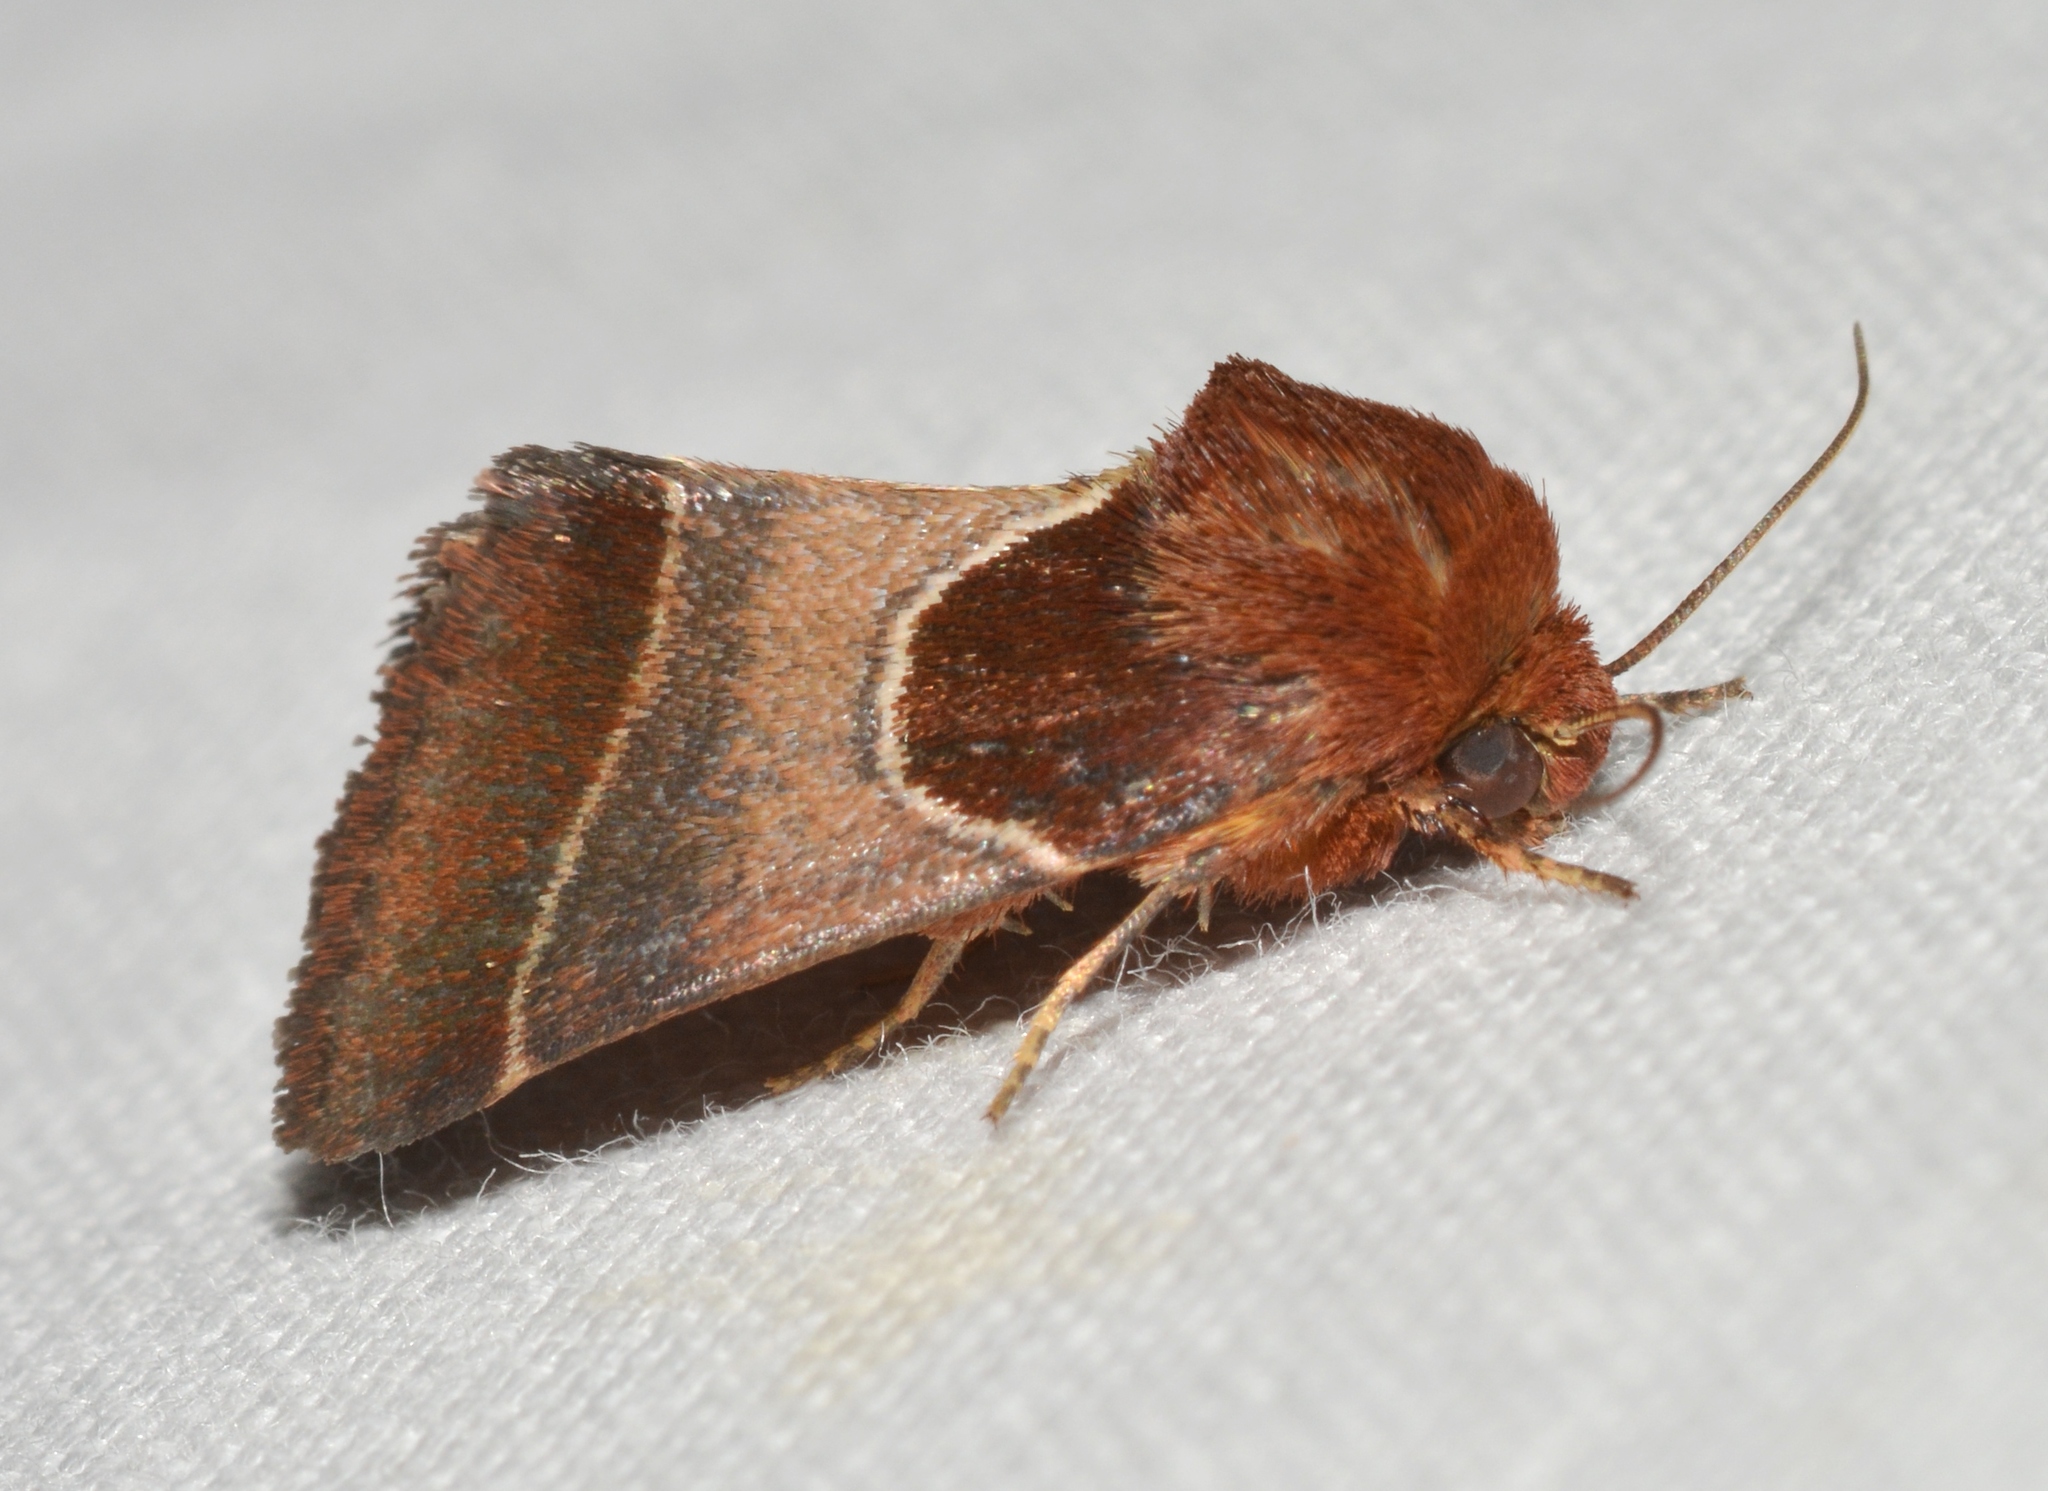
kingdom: Animalia
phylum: Arthropoda
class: Insecta
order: Lepidoptera
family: Noctuidae
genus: Schinia
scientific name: Schinia arcigera
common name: Arcigera flower moth
